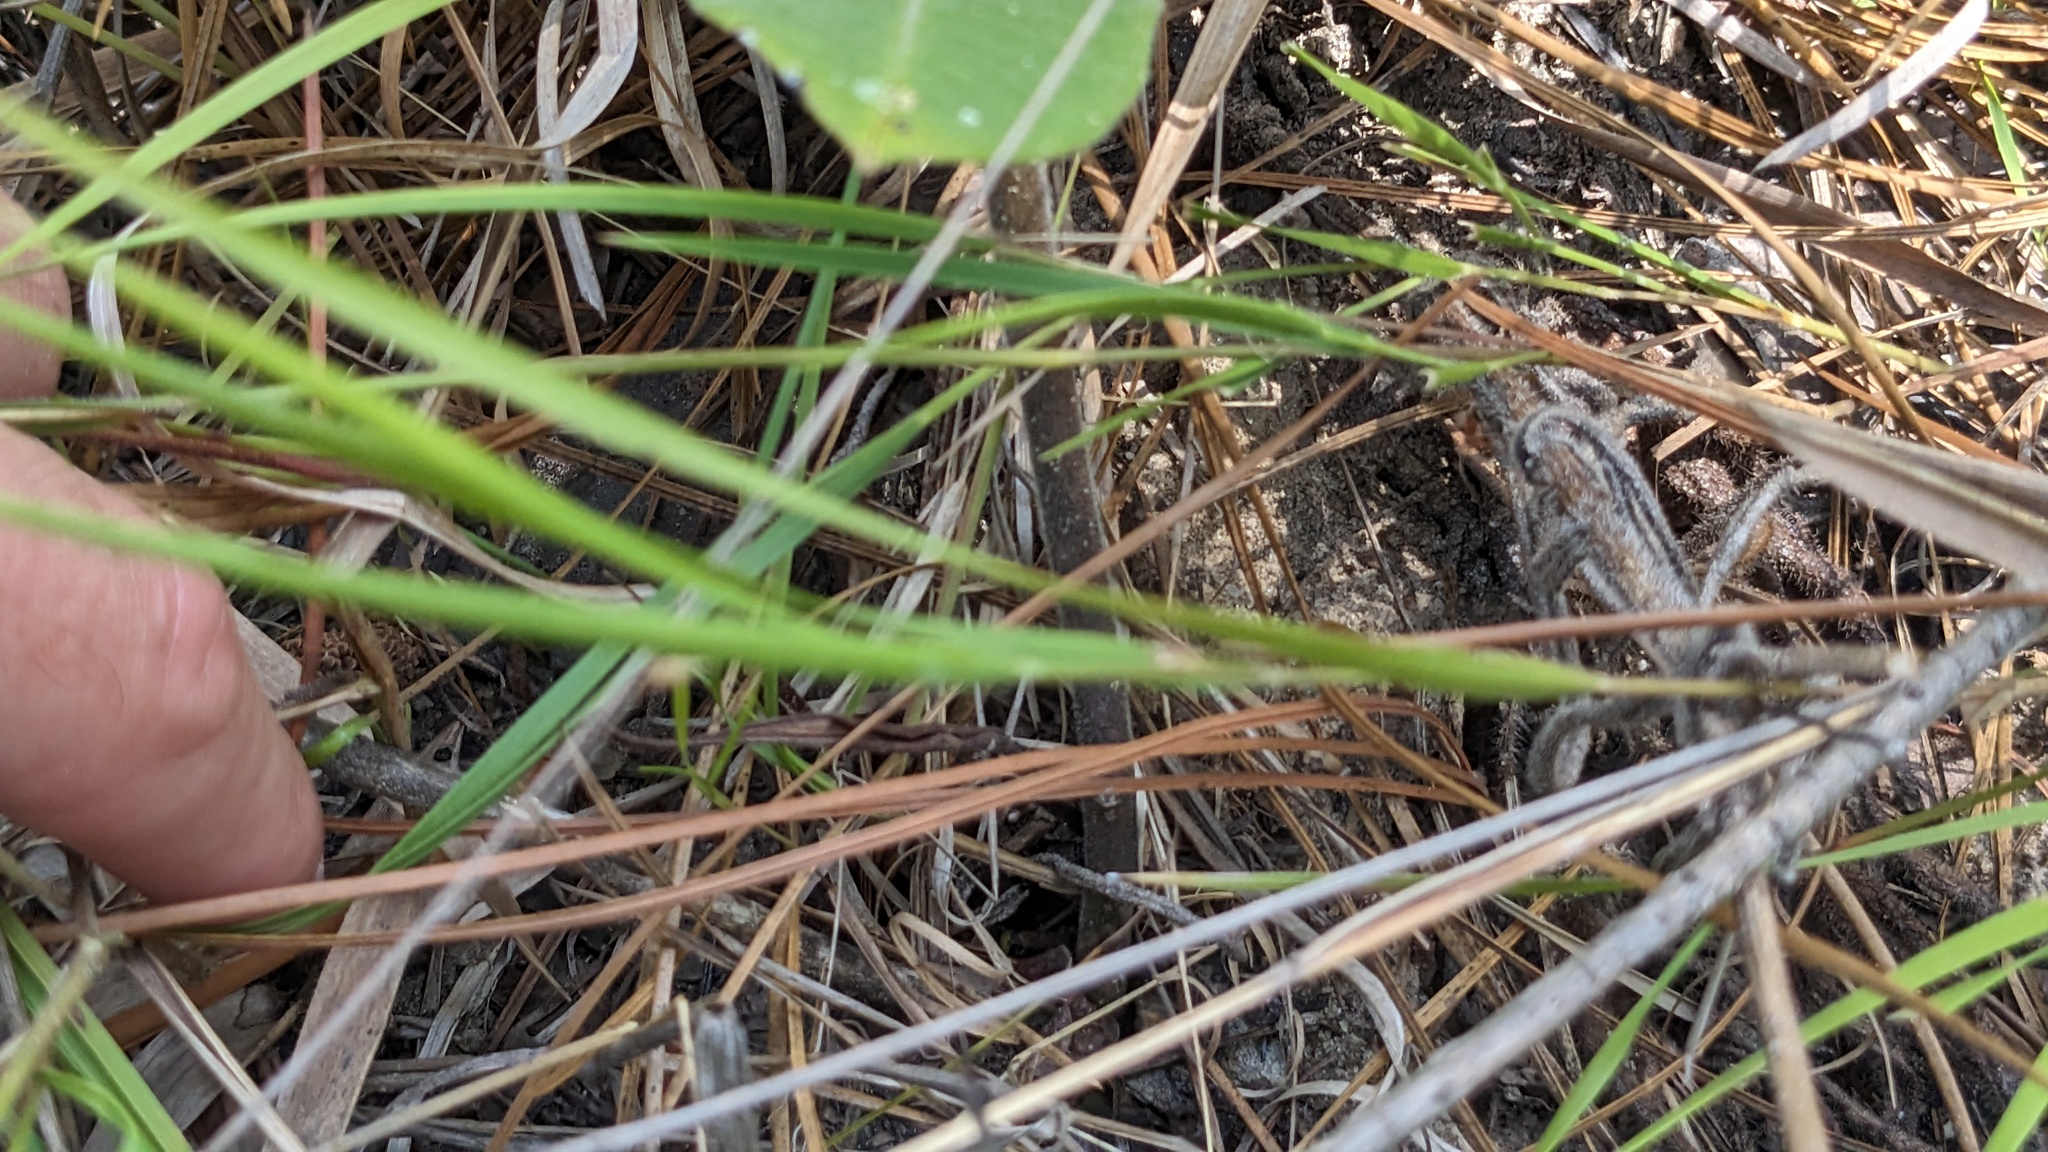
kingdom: Plantae
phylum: Tracheophyta
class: Magnoliopsida
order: Gentianales
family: Apocynaceae
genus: Asclepias
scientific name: Asclepias obovata
